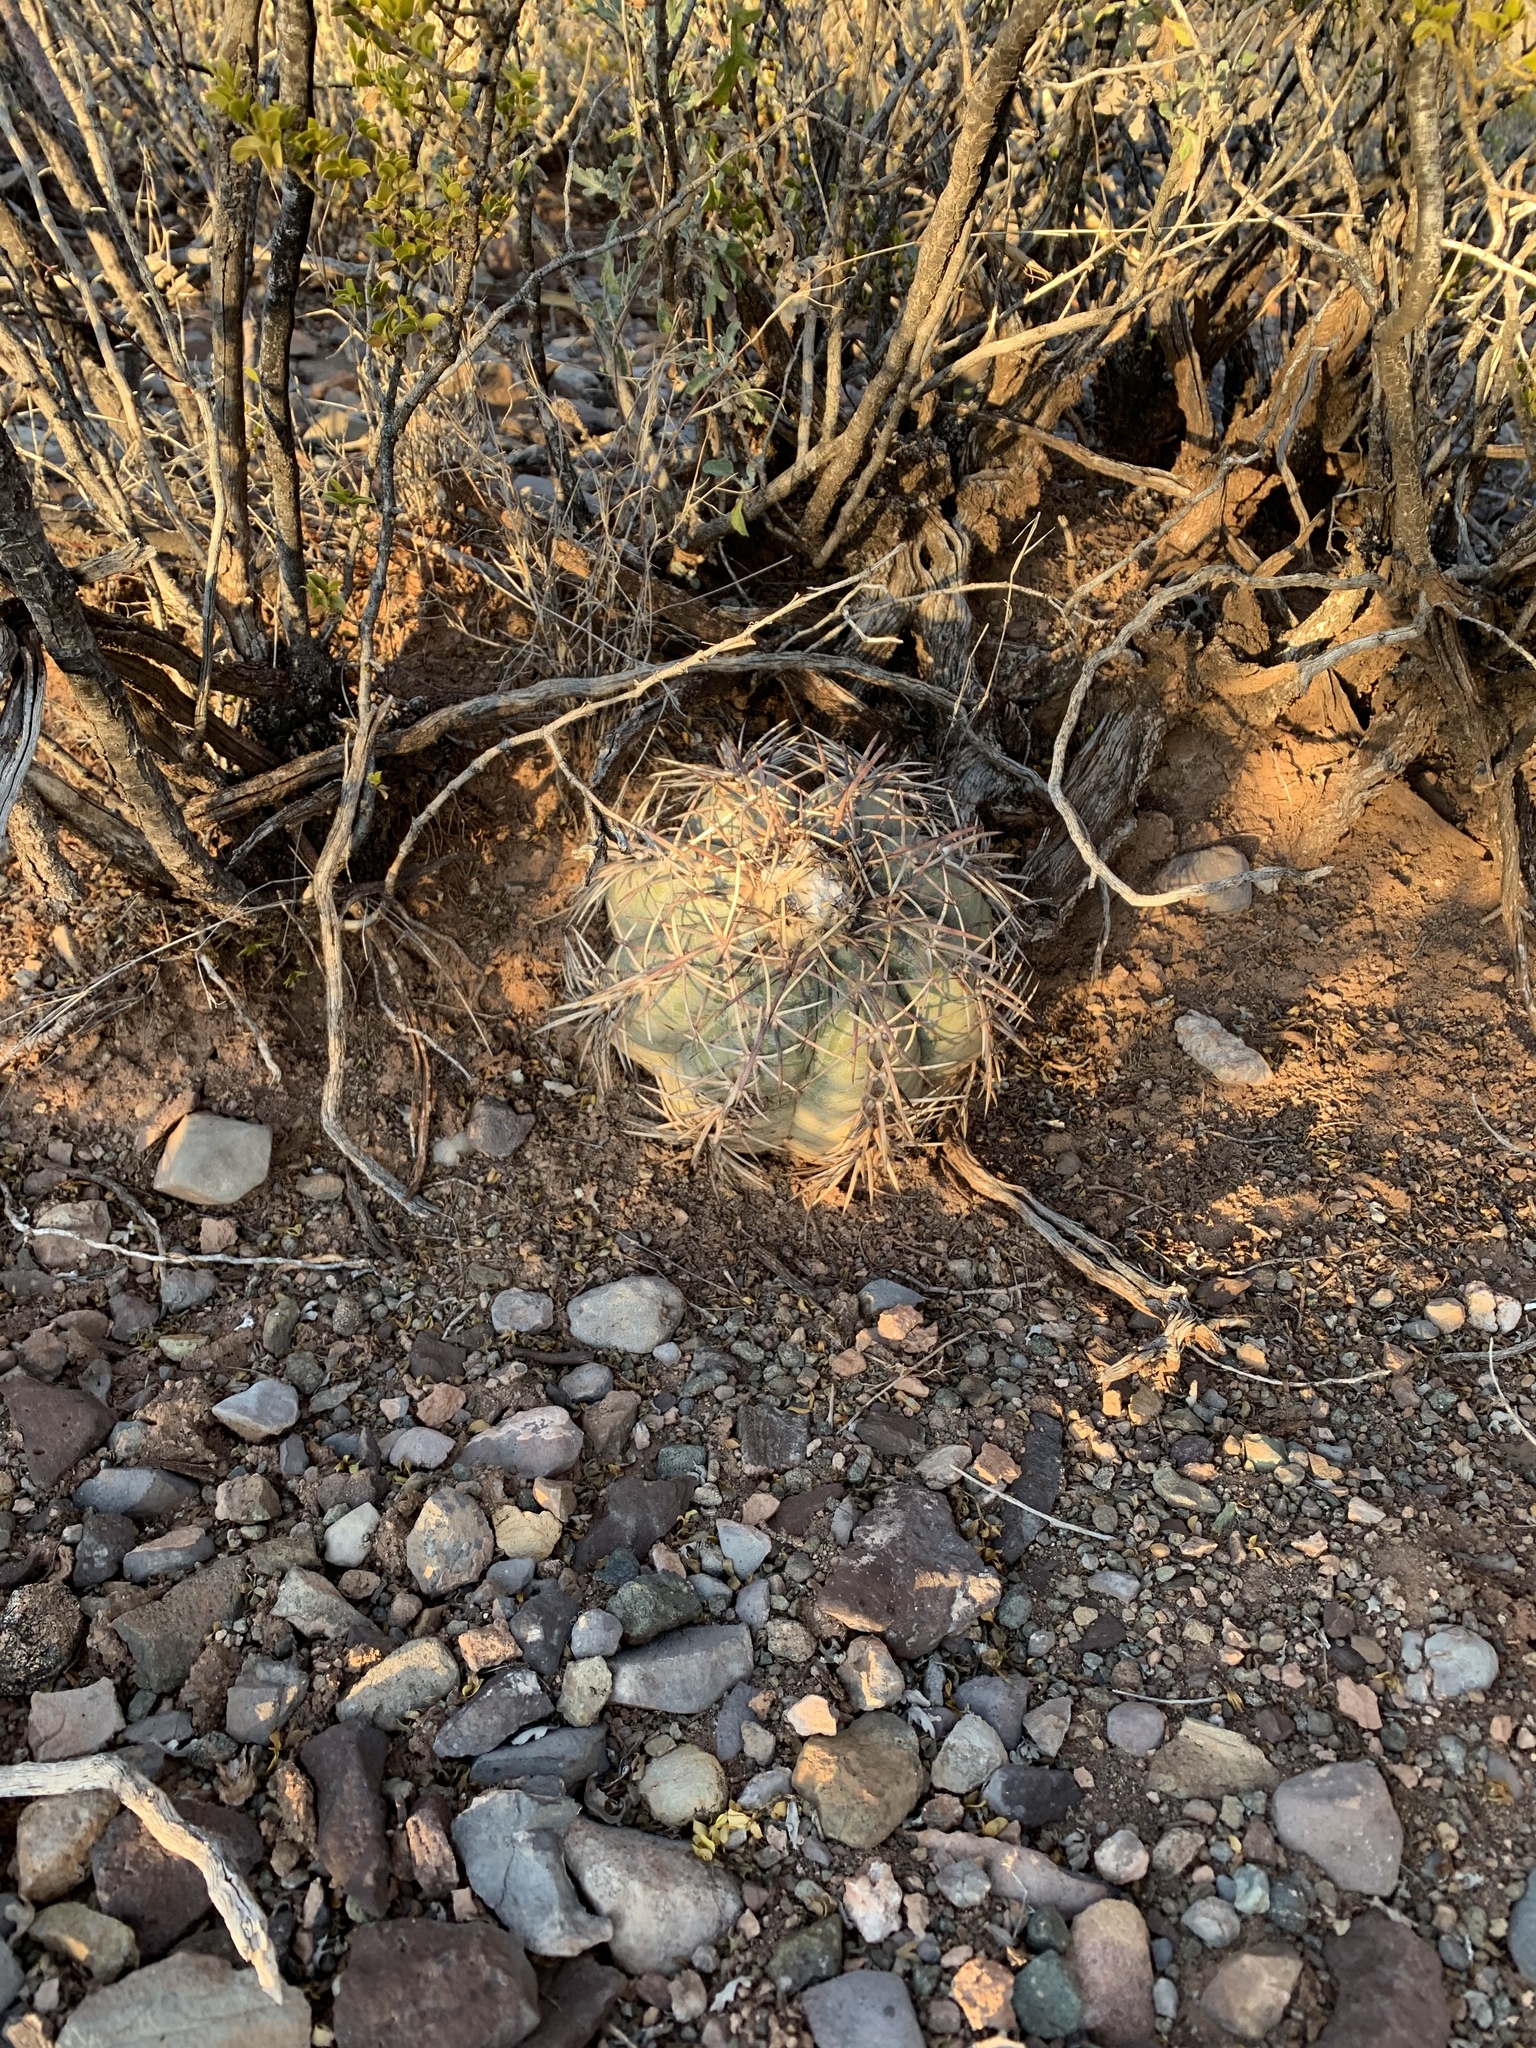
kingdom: Plantae
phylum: Tracheophyta
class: Magnoliopsida
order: Caryophyllales
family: Cactaceae
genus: Echinocactus
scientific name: Echinocactus horizonthalonius
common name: Devilshead
